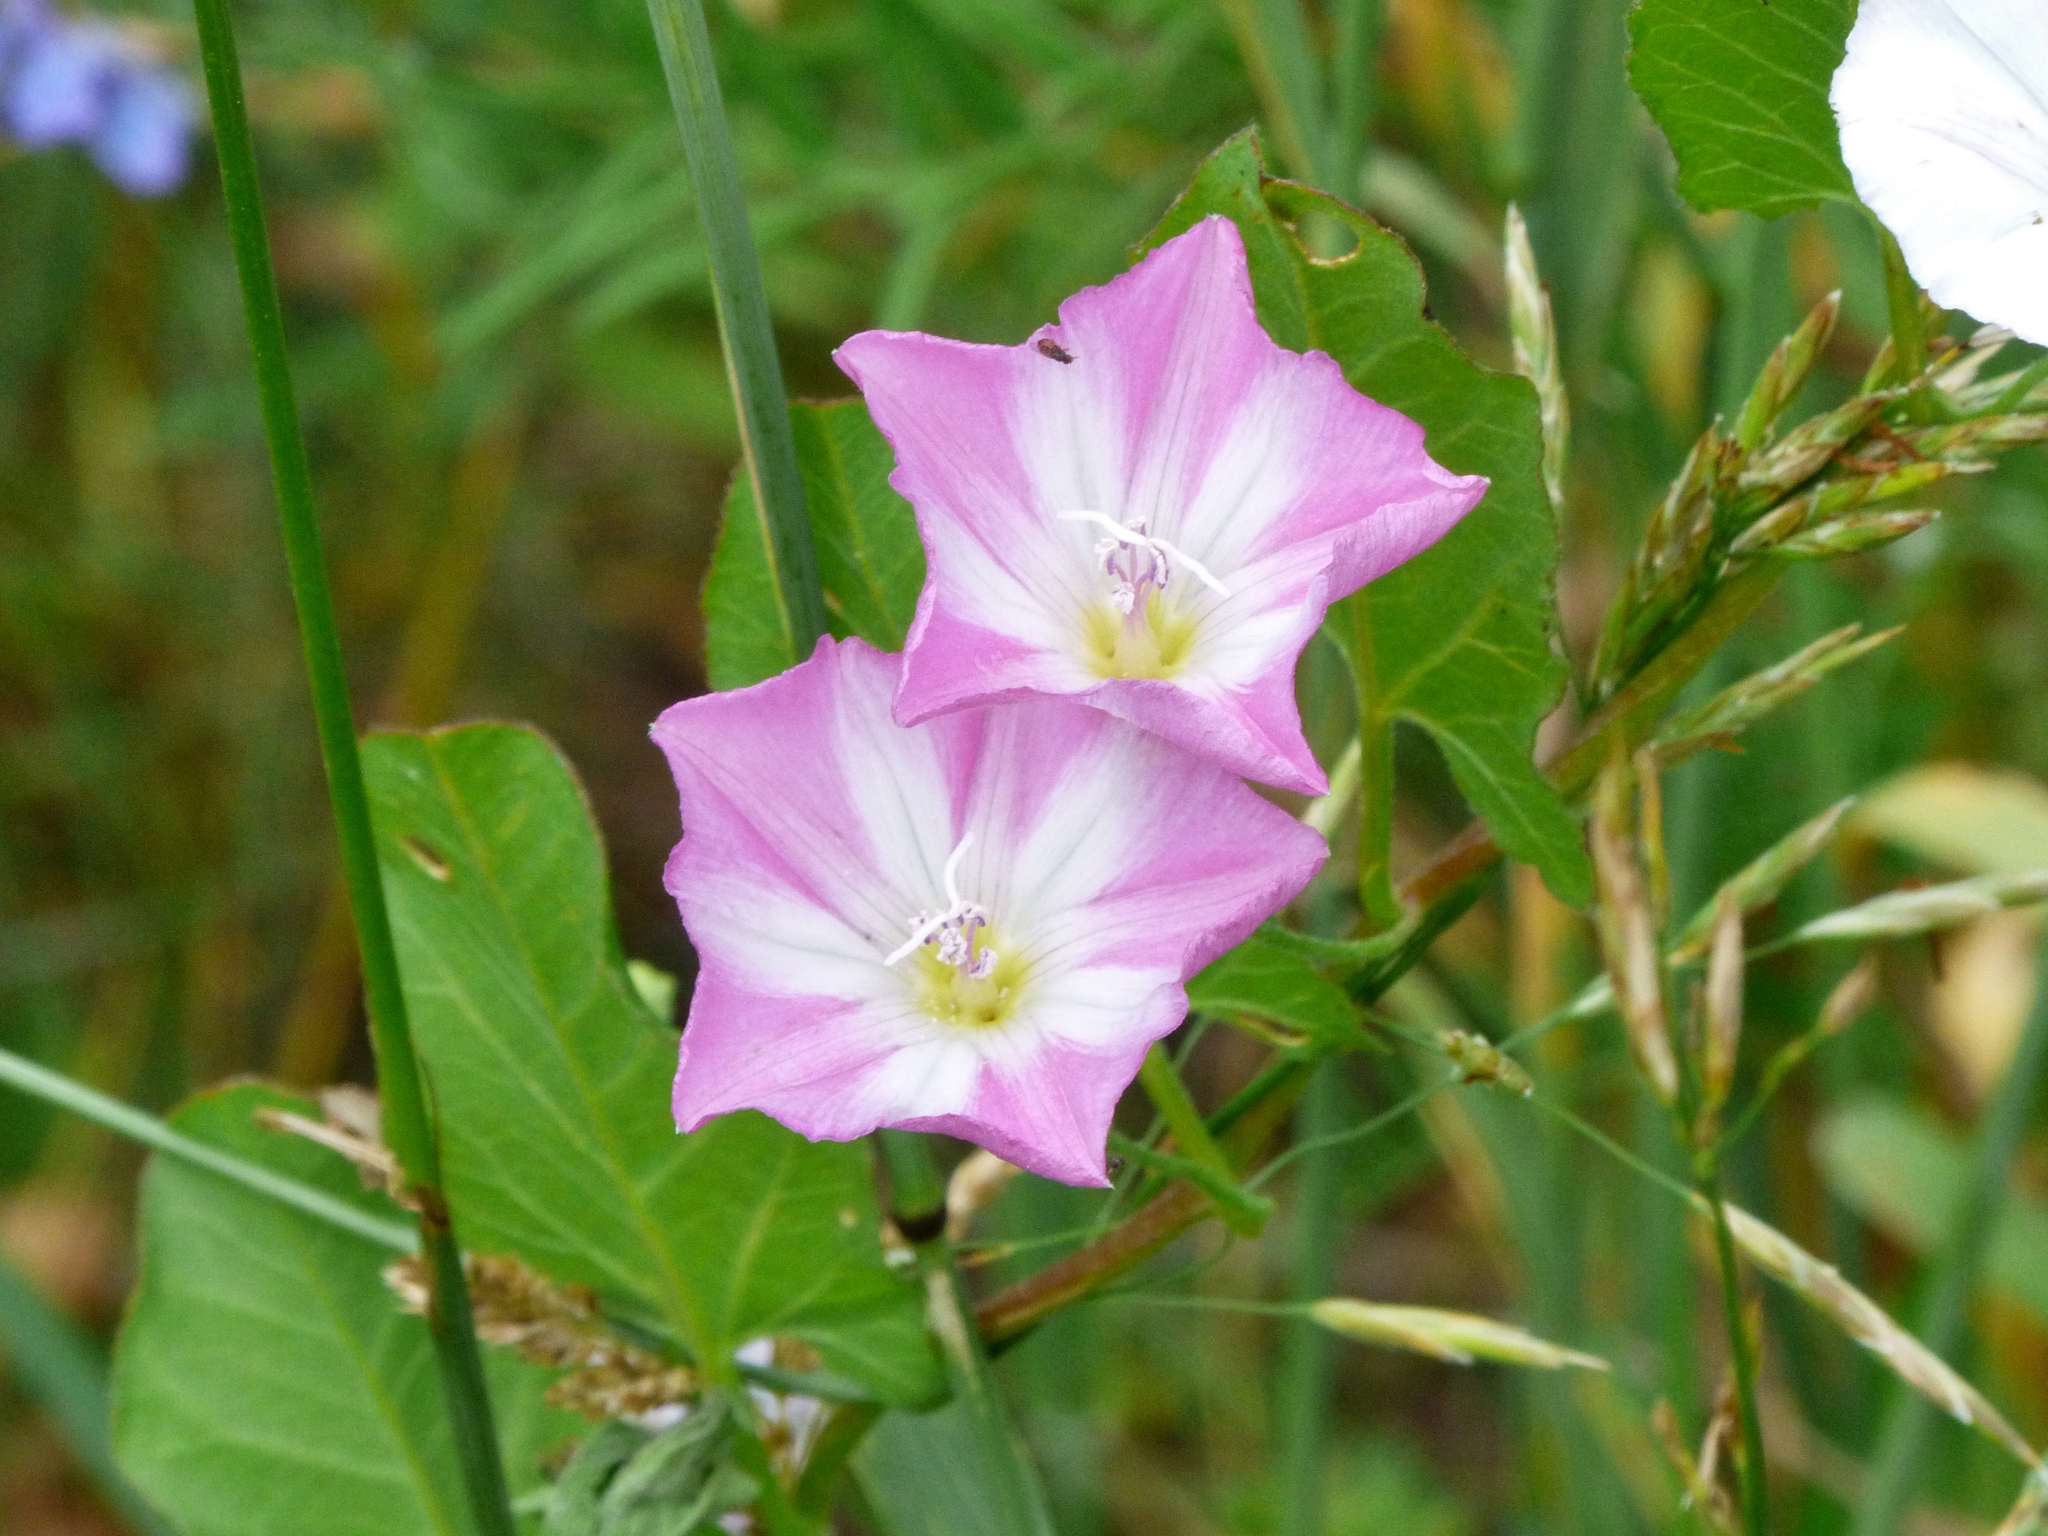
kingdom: Plantae
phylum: Tracheophyta
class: Magnoliopsida
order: Solanales
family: Convolvulaceae
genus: Convolvulus
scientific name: Convolvulus arvensis
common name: Field bindweed
